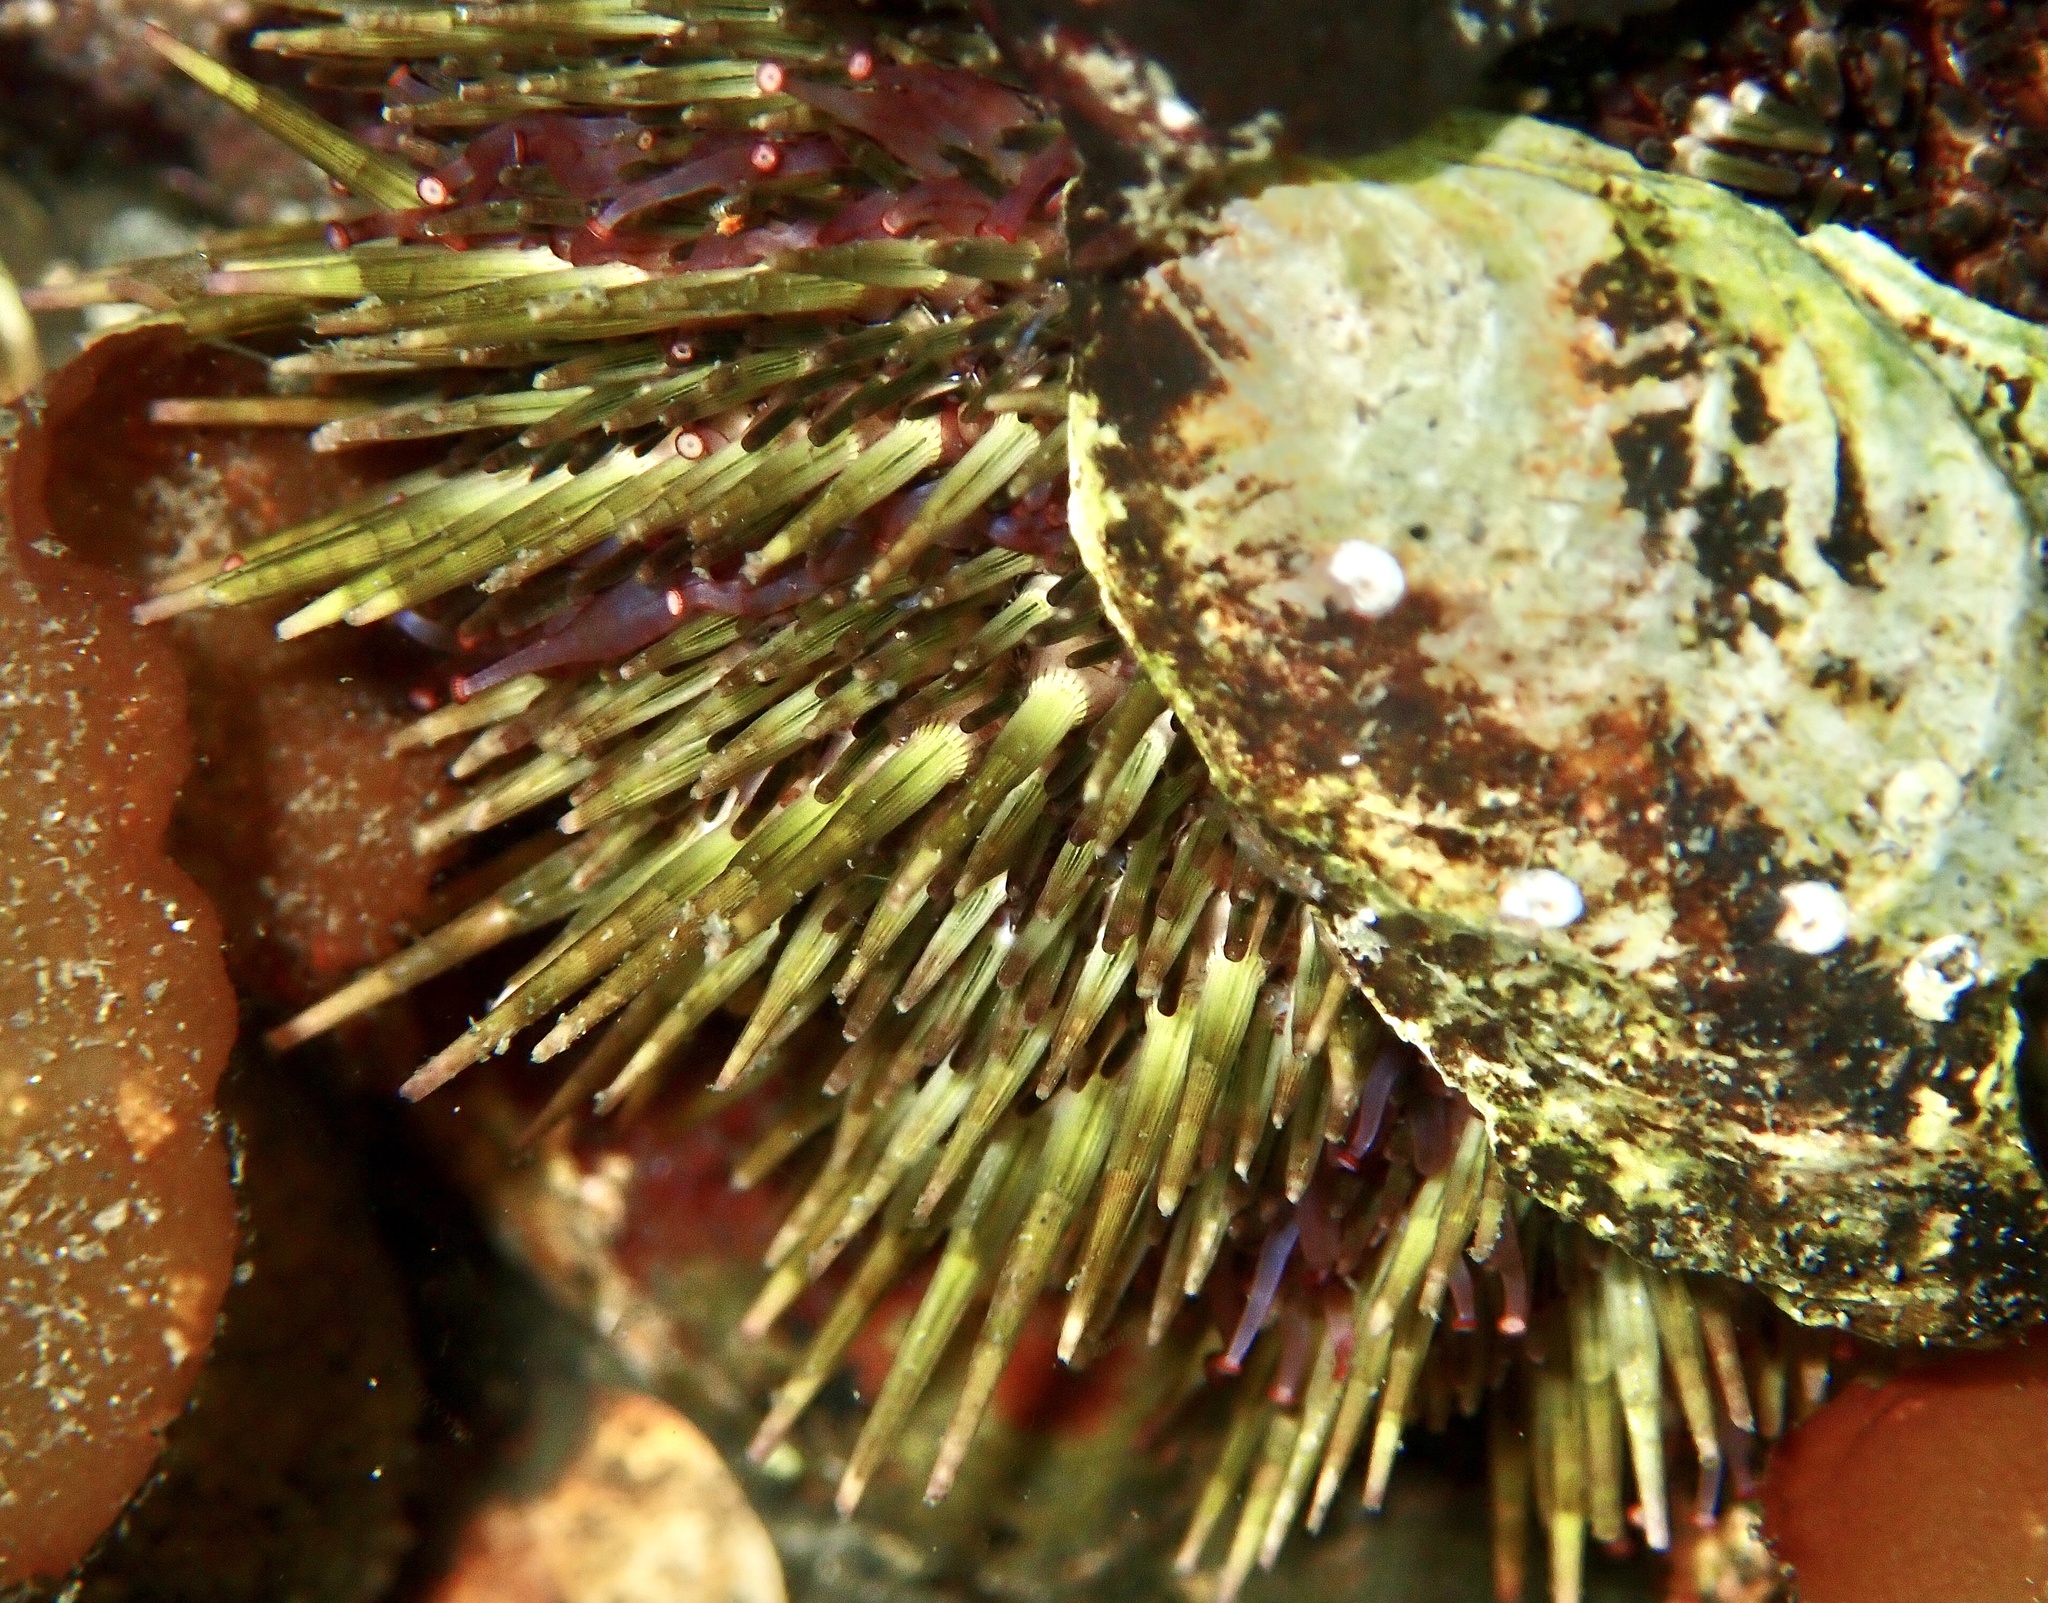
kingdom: Animalia
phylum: Echinodermata
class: Echinoidea
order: Camarodonta
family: Parechinidae
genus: Psammechinus
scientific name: Psammechinus miliaris
